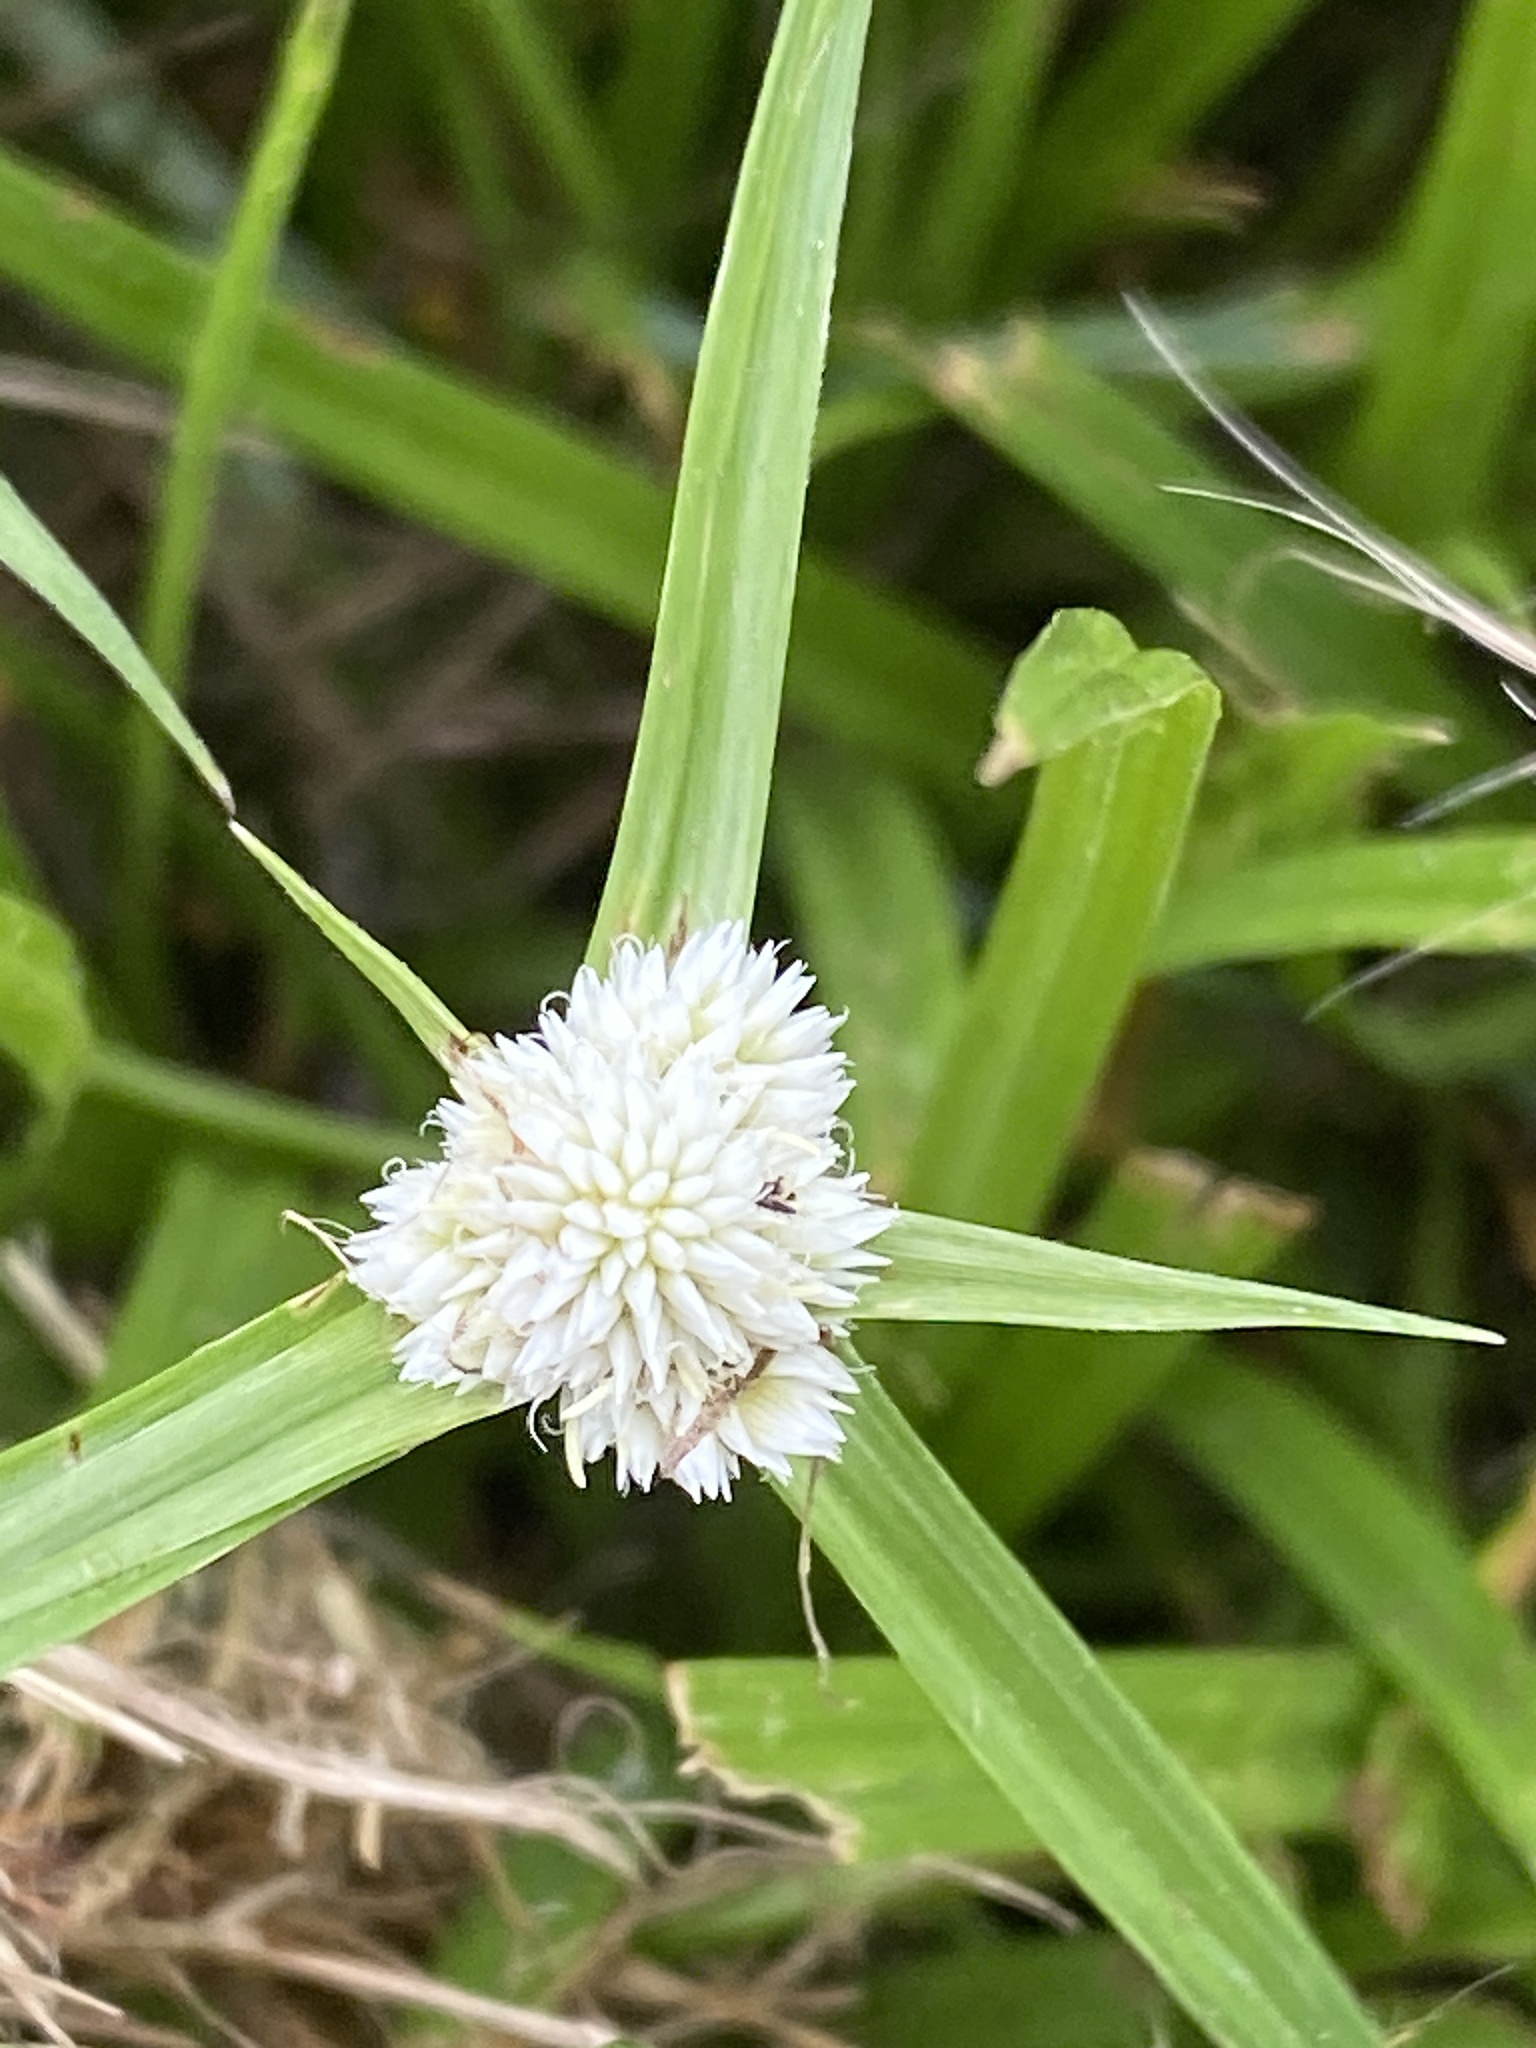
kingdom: Plantae
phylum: Tracheophyta
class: Liliopsida
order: Poales
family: Cyperaceae
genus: Cyperus
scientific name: Cyperus sesquiflorus
